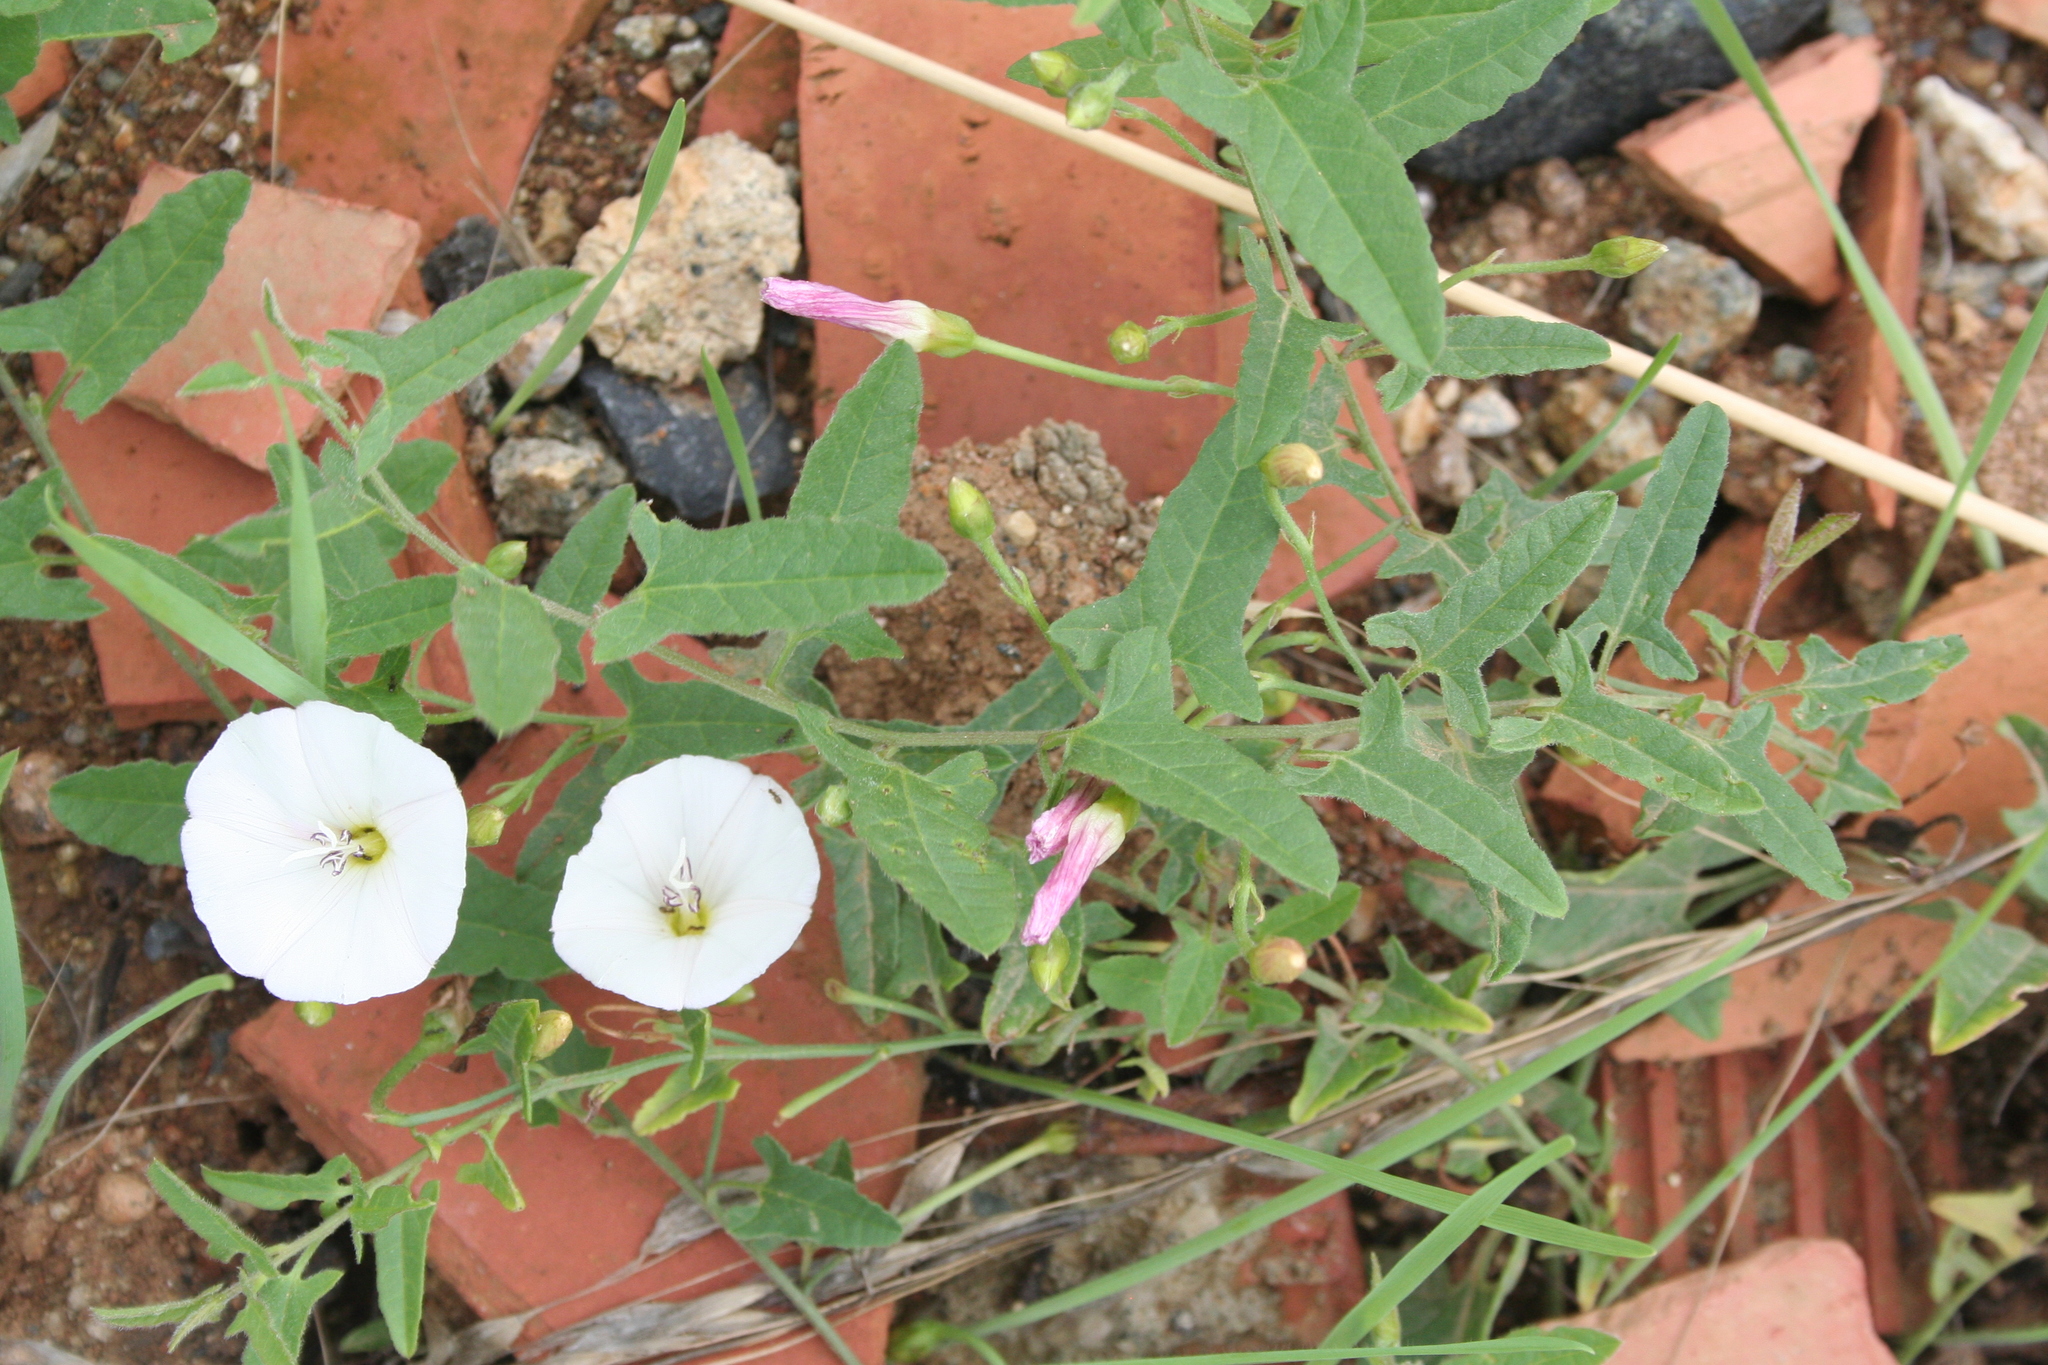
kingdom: Plantae
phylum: Tracheophyta
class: Magnoliopsida
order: Solanales
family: Convolvulaceae
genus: Convolvulus
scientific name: Convolvulus arvensis
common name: Field bindweed
